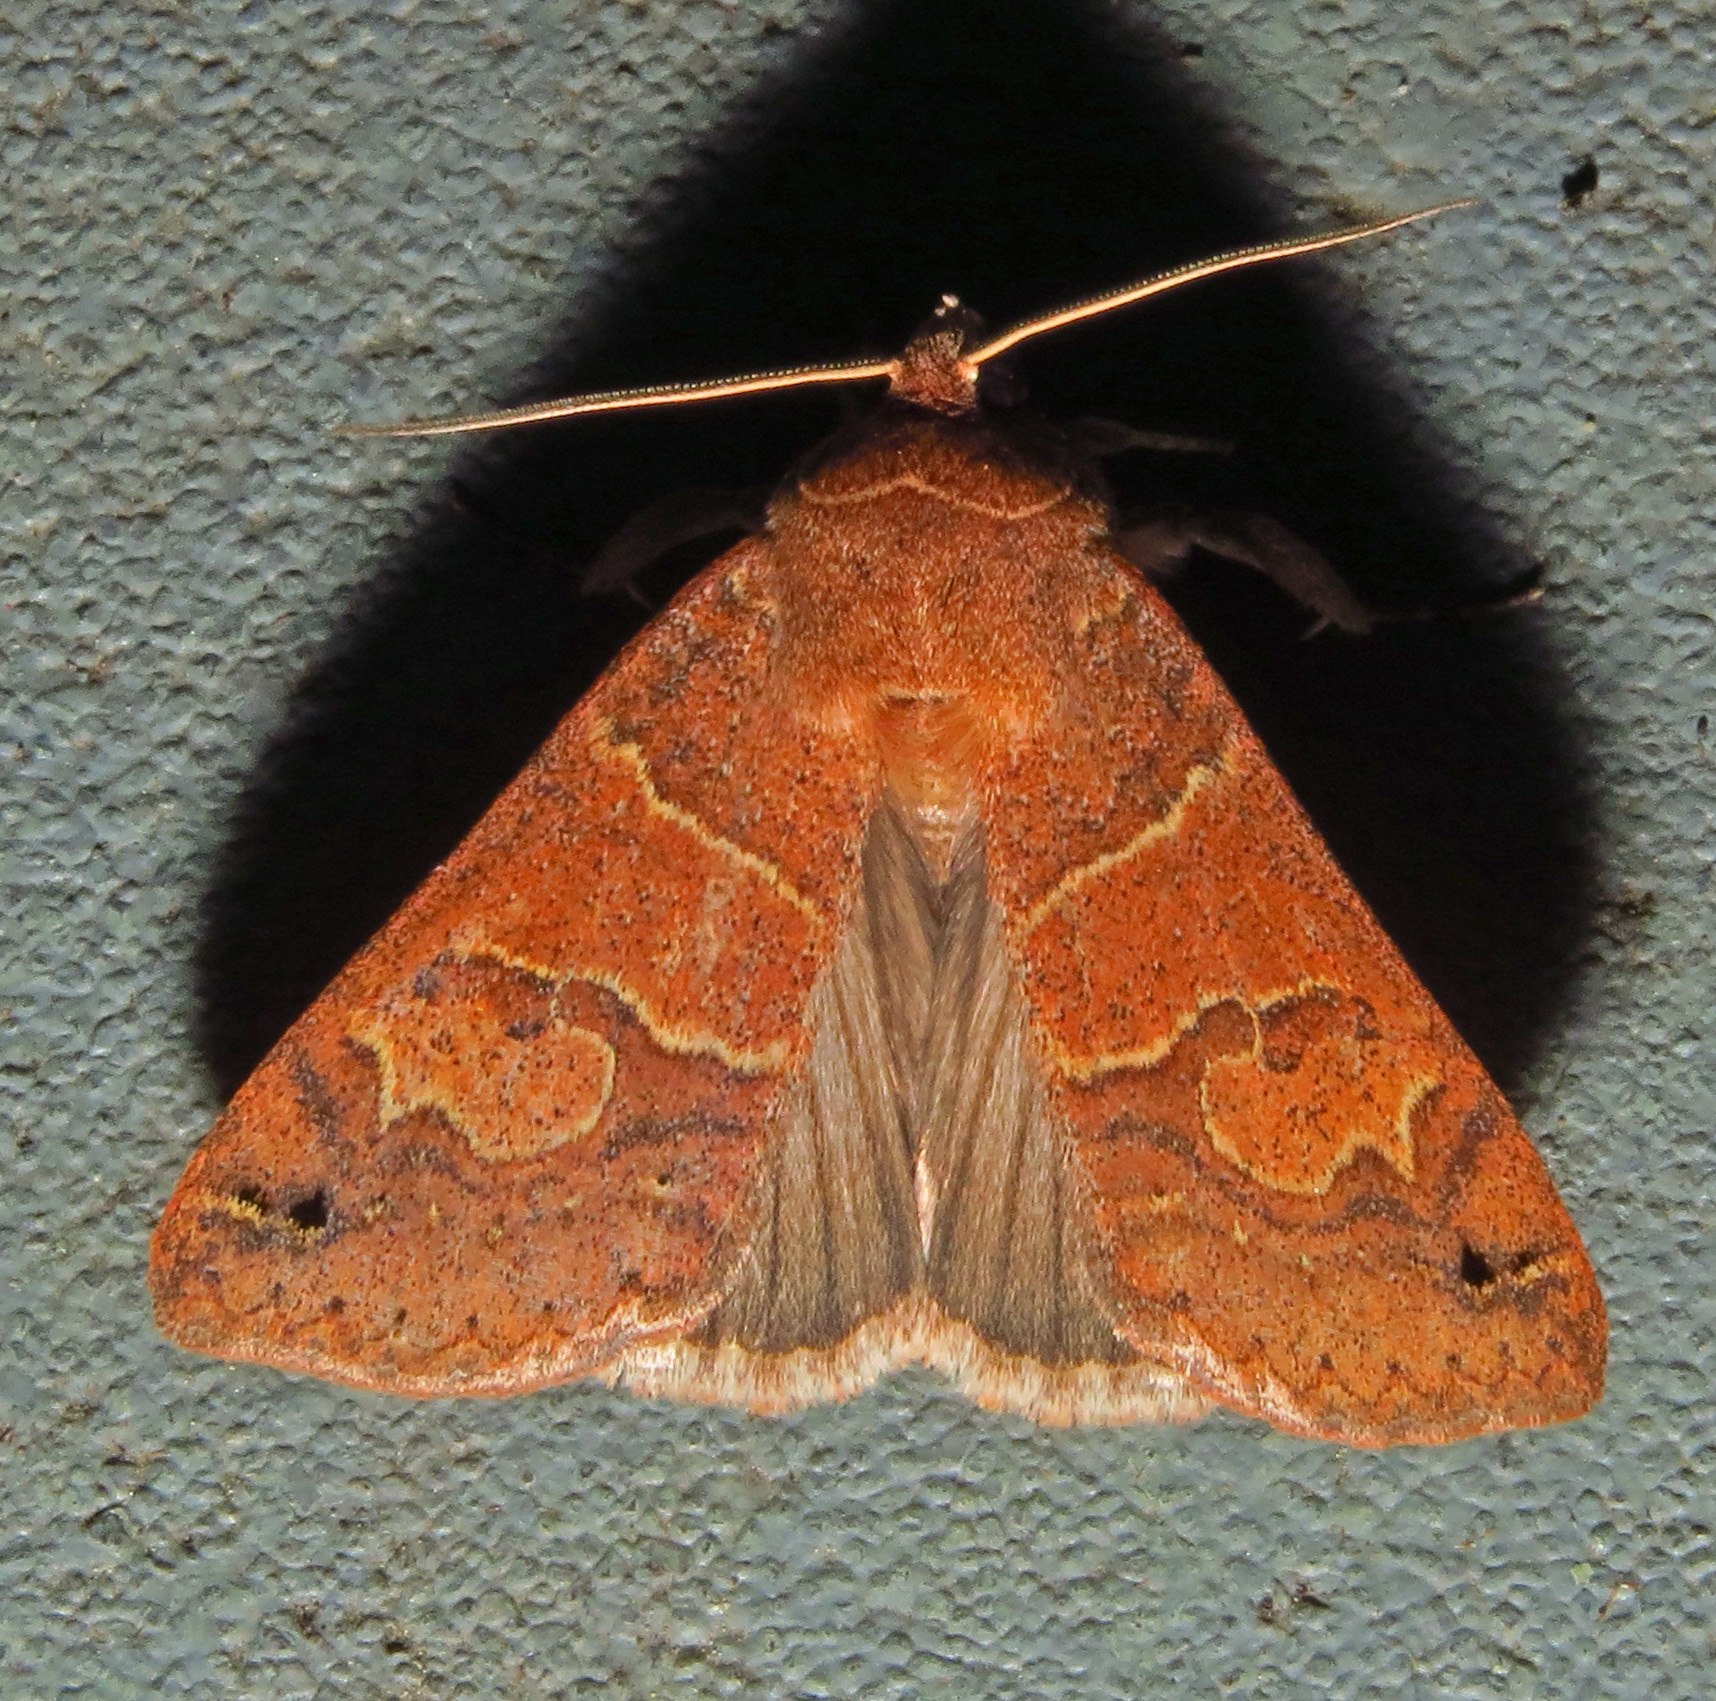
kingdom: Animalia
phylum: Arthropoda
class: Insecta
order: Lepidoptera
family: Erebidae
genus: Cissusa
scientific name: Cissusa spadix
